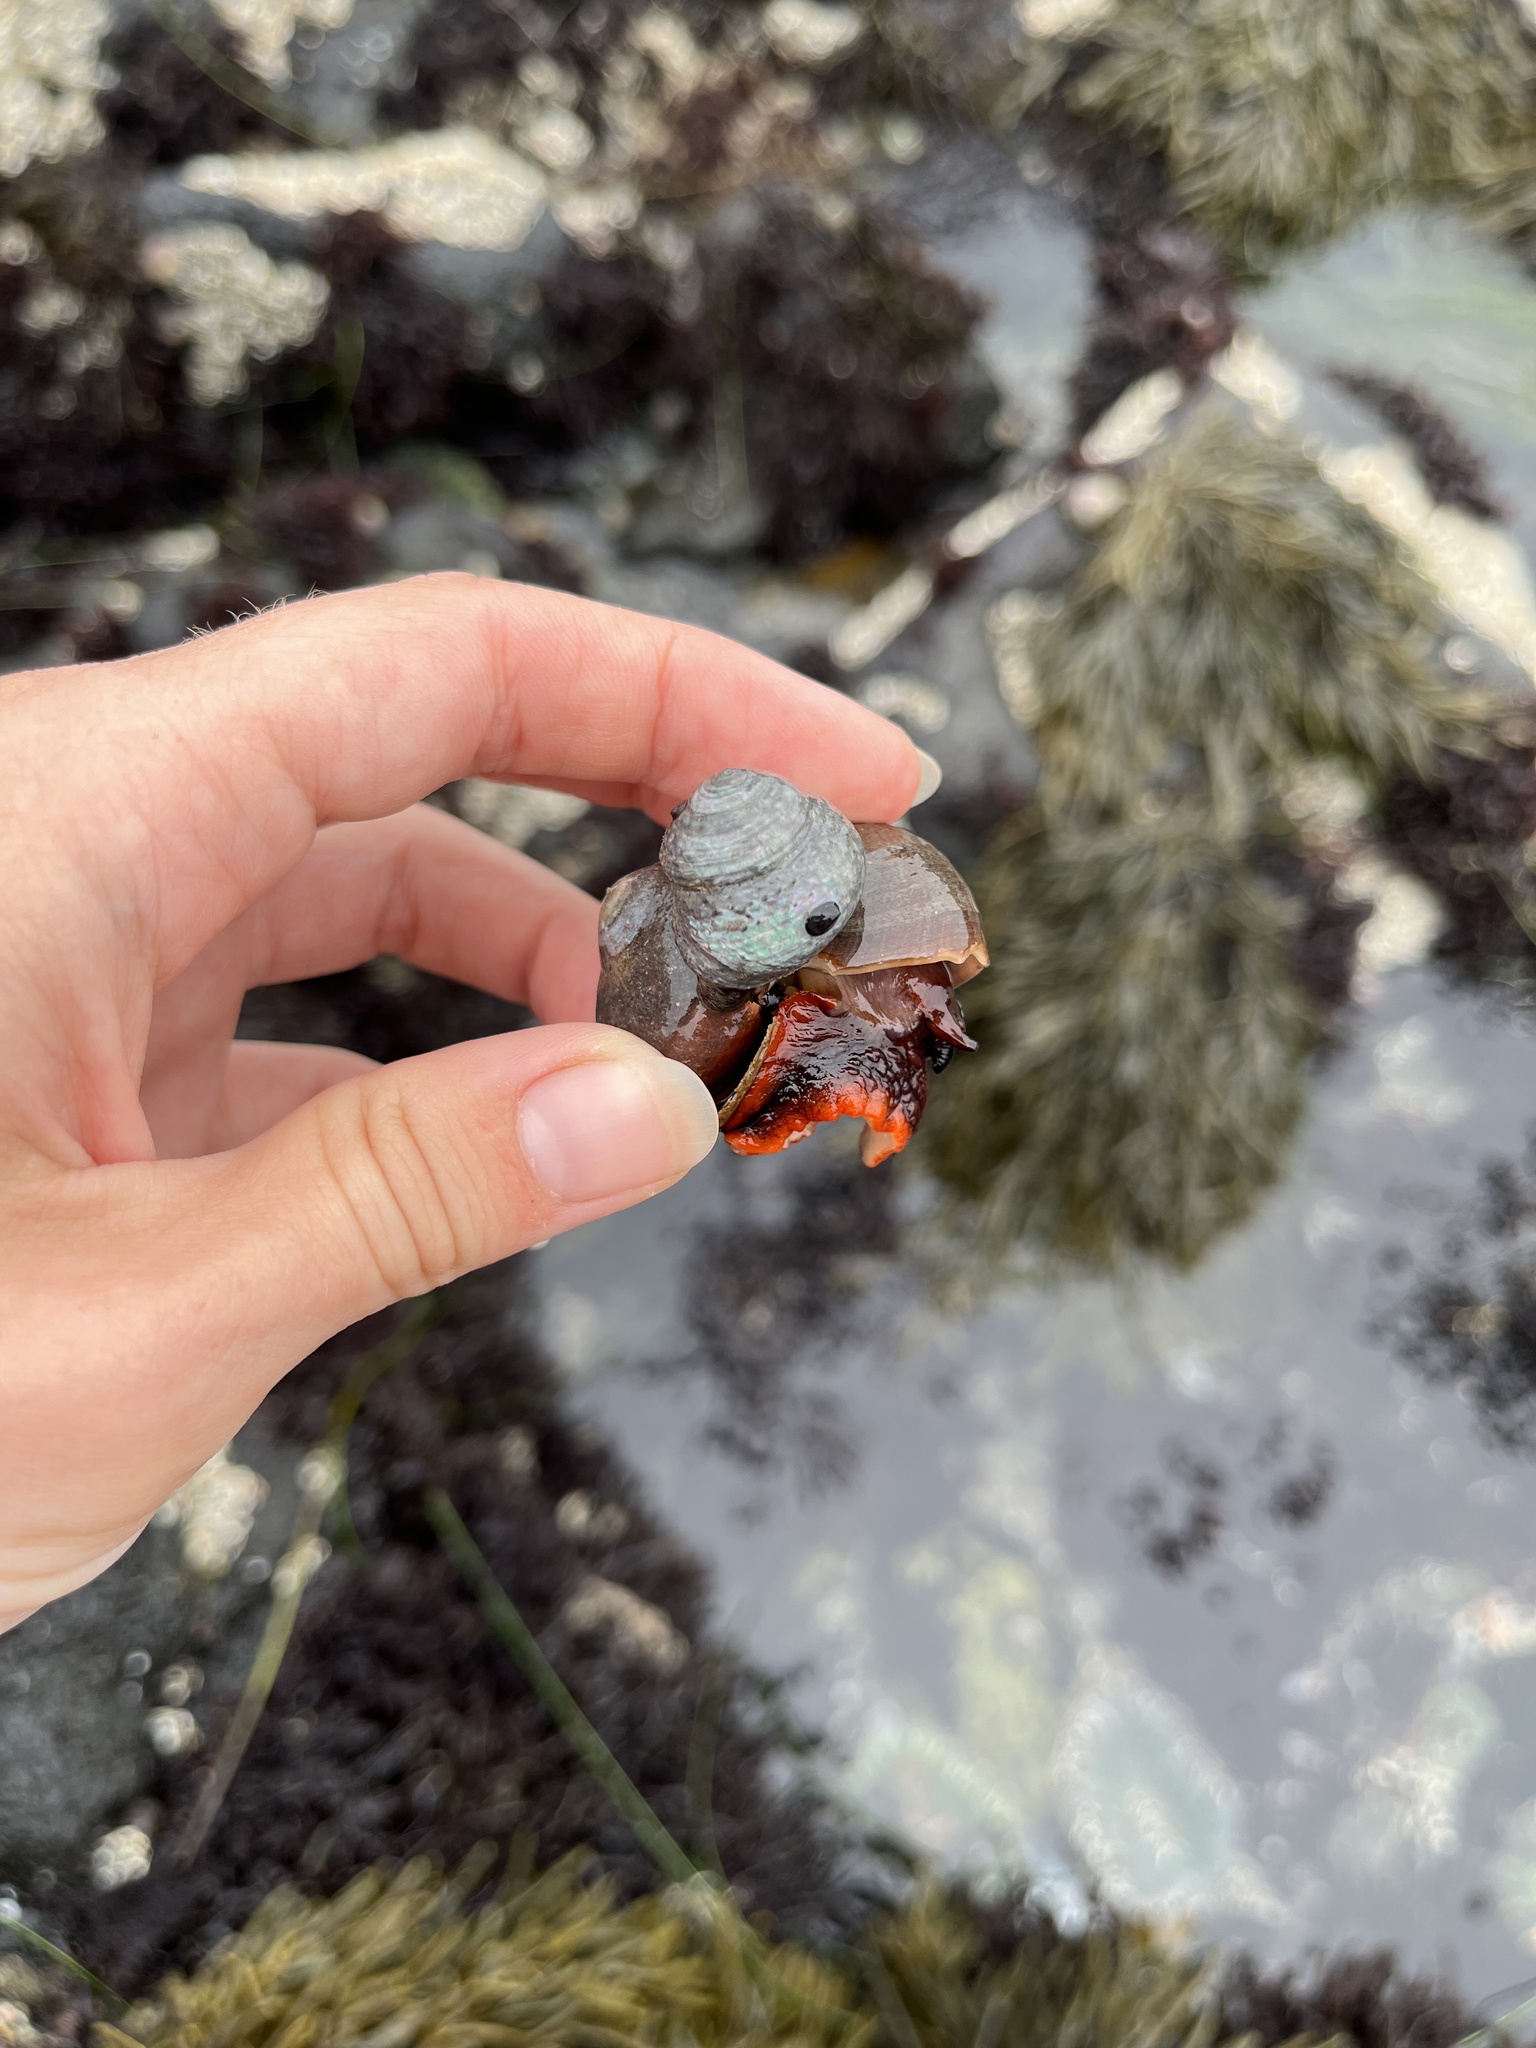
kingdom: Animalia
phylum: Mollusca
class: Gastropoda
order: Trochida
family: Tegulidae
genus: Norrisia
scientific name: Norrisia norrisii
